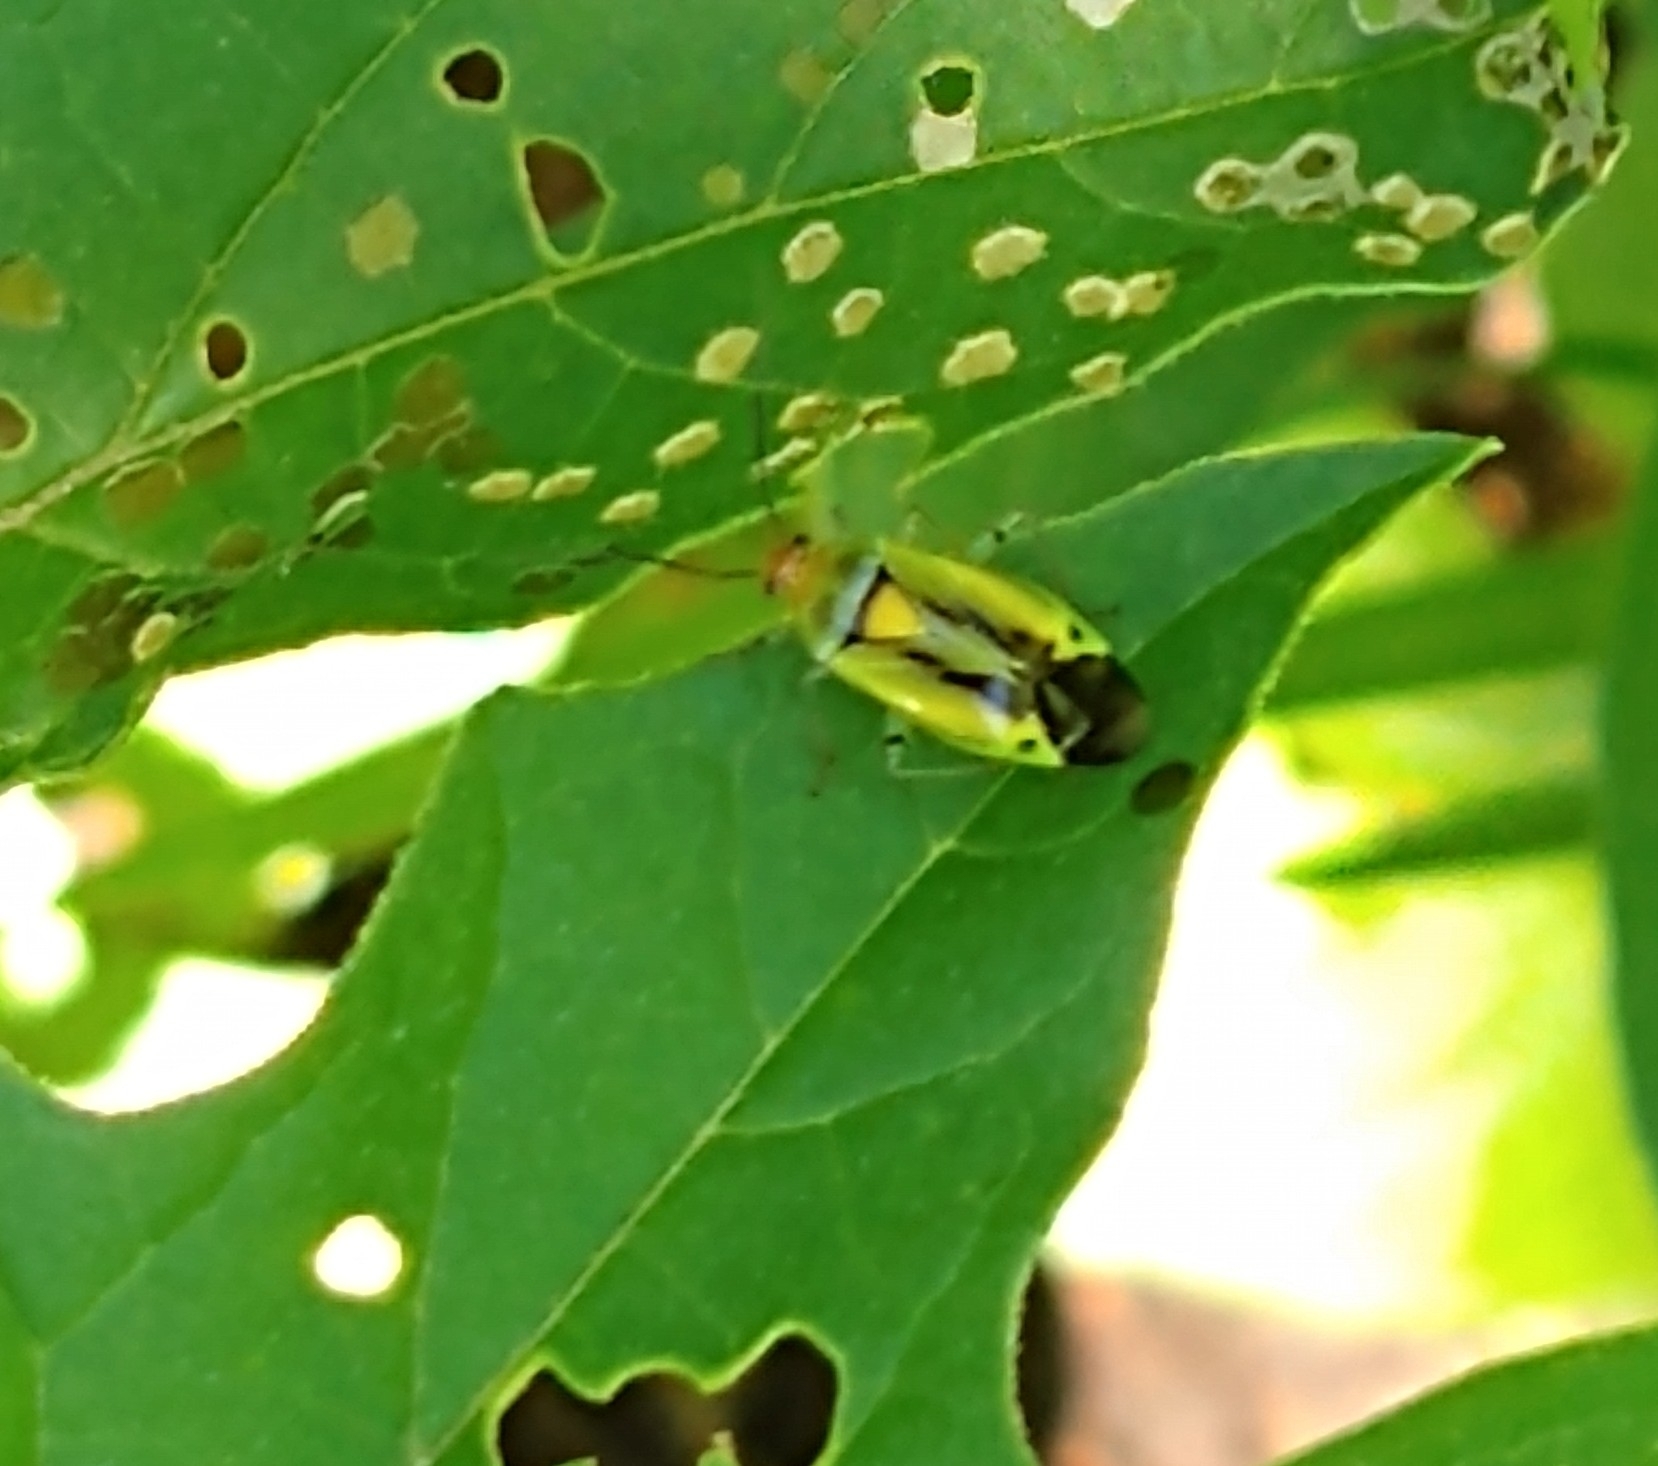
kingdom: Animalia
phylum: Arthropoda
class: Insecta
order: Hemiptera
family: Miridae
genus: Poecilocapsus
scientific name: Poecilocapsus nigriger
